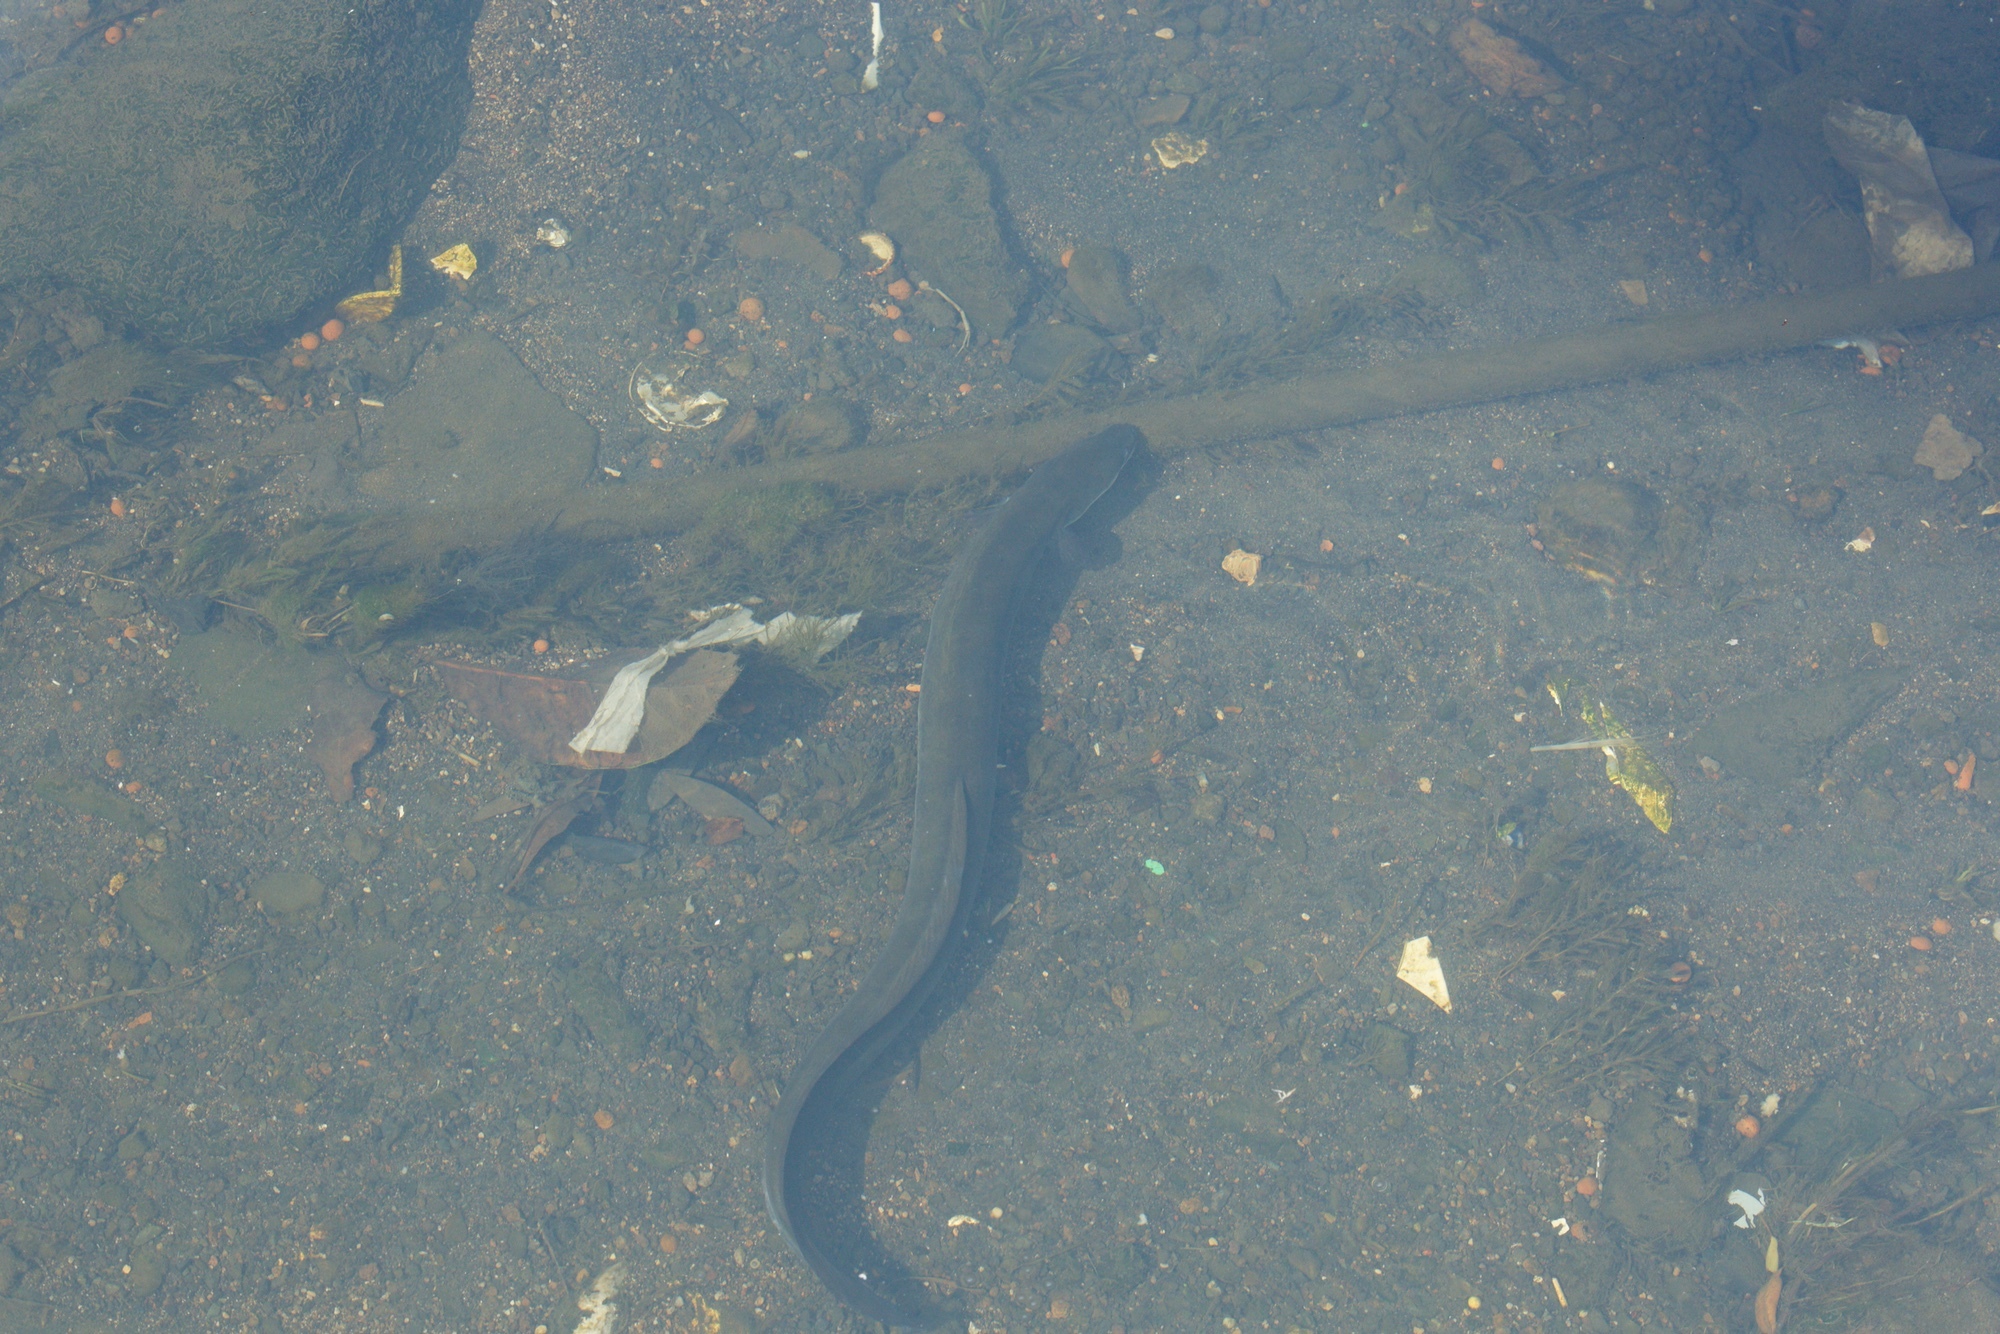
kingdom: Animalia
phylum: Chordata
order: Anguilliformes
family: Anguillidae
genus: Anguilla
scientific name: Anguilla australis
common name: Shortfin eel
